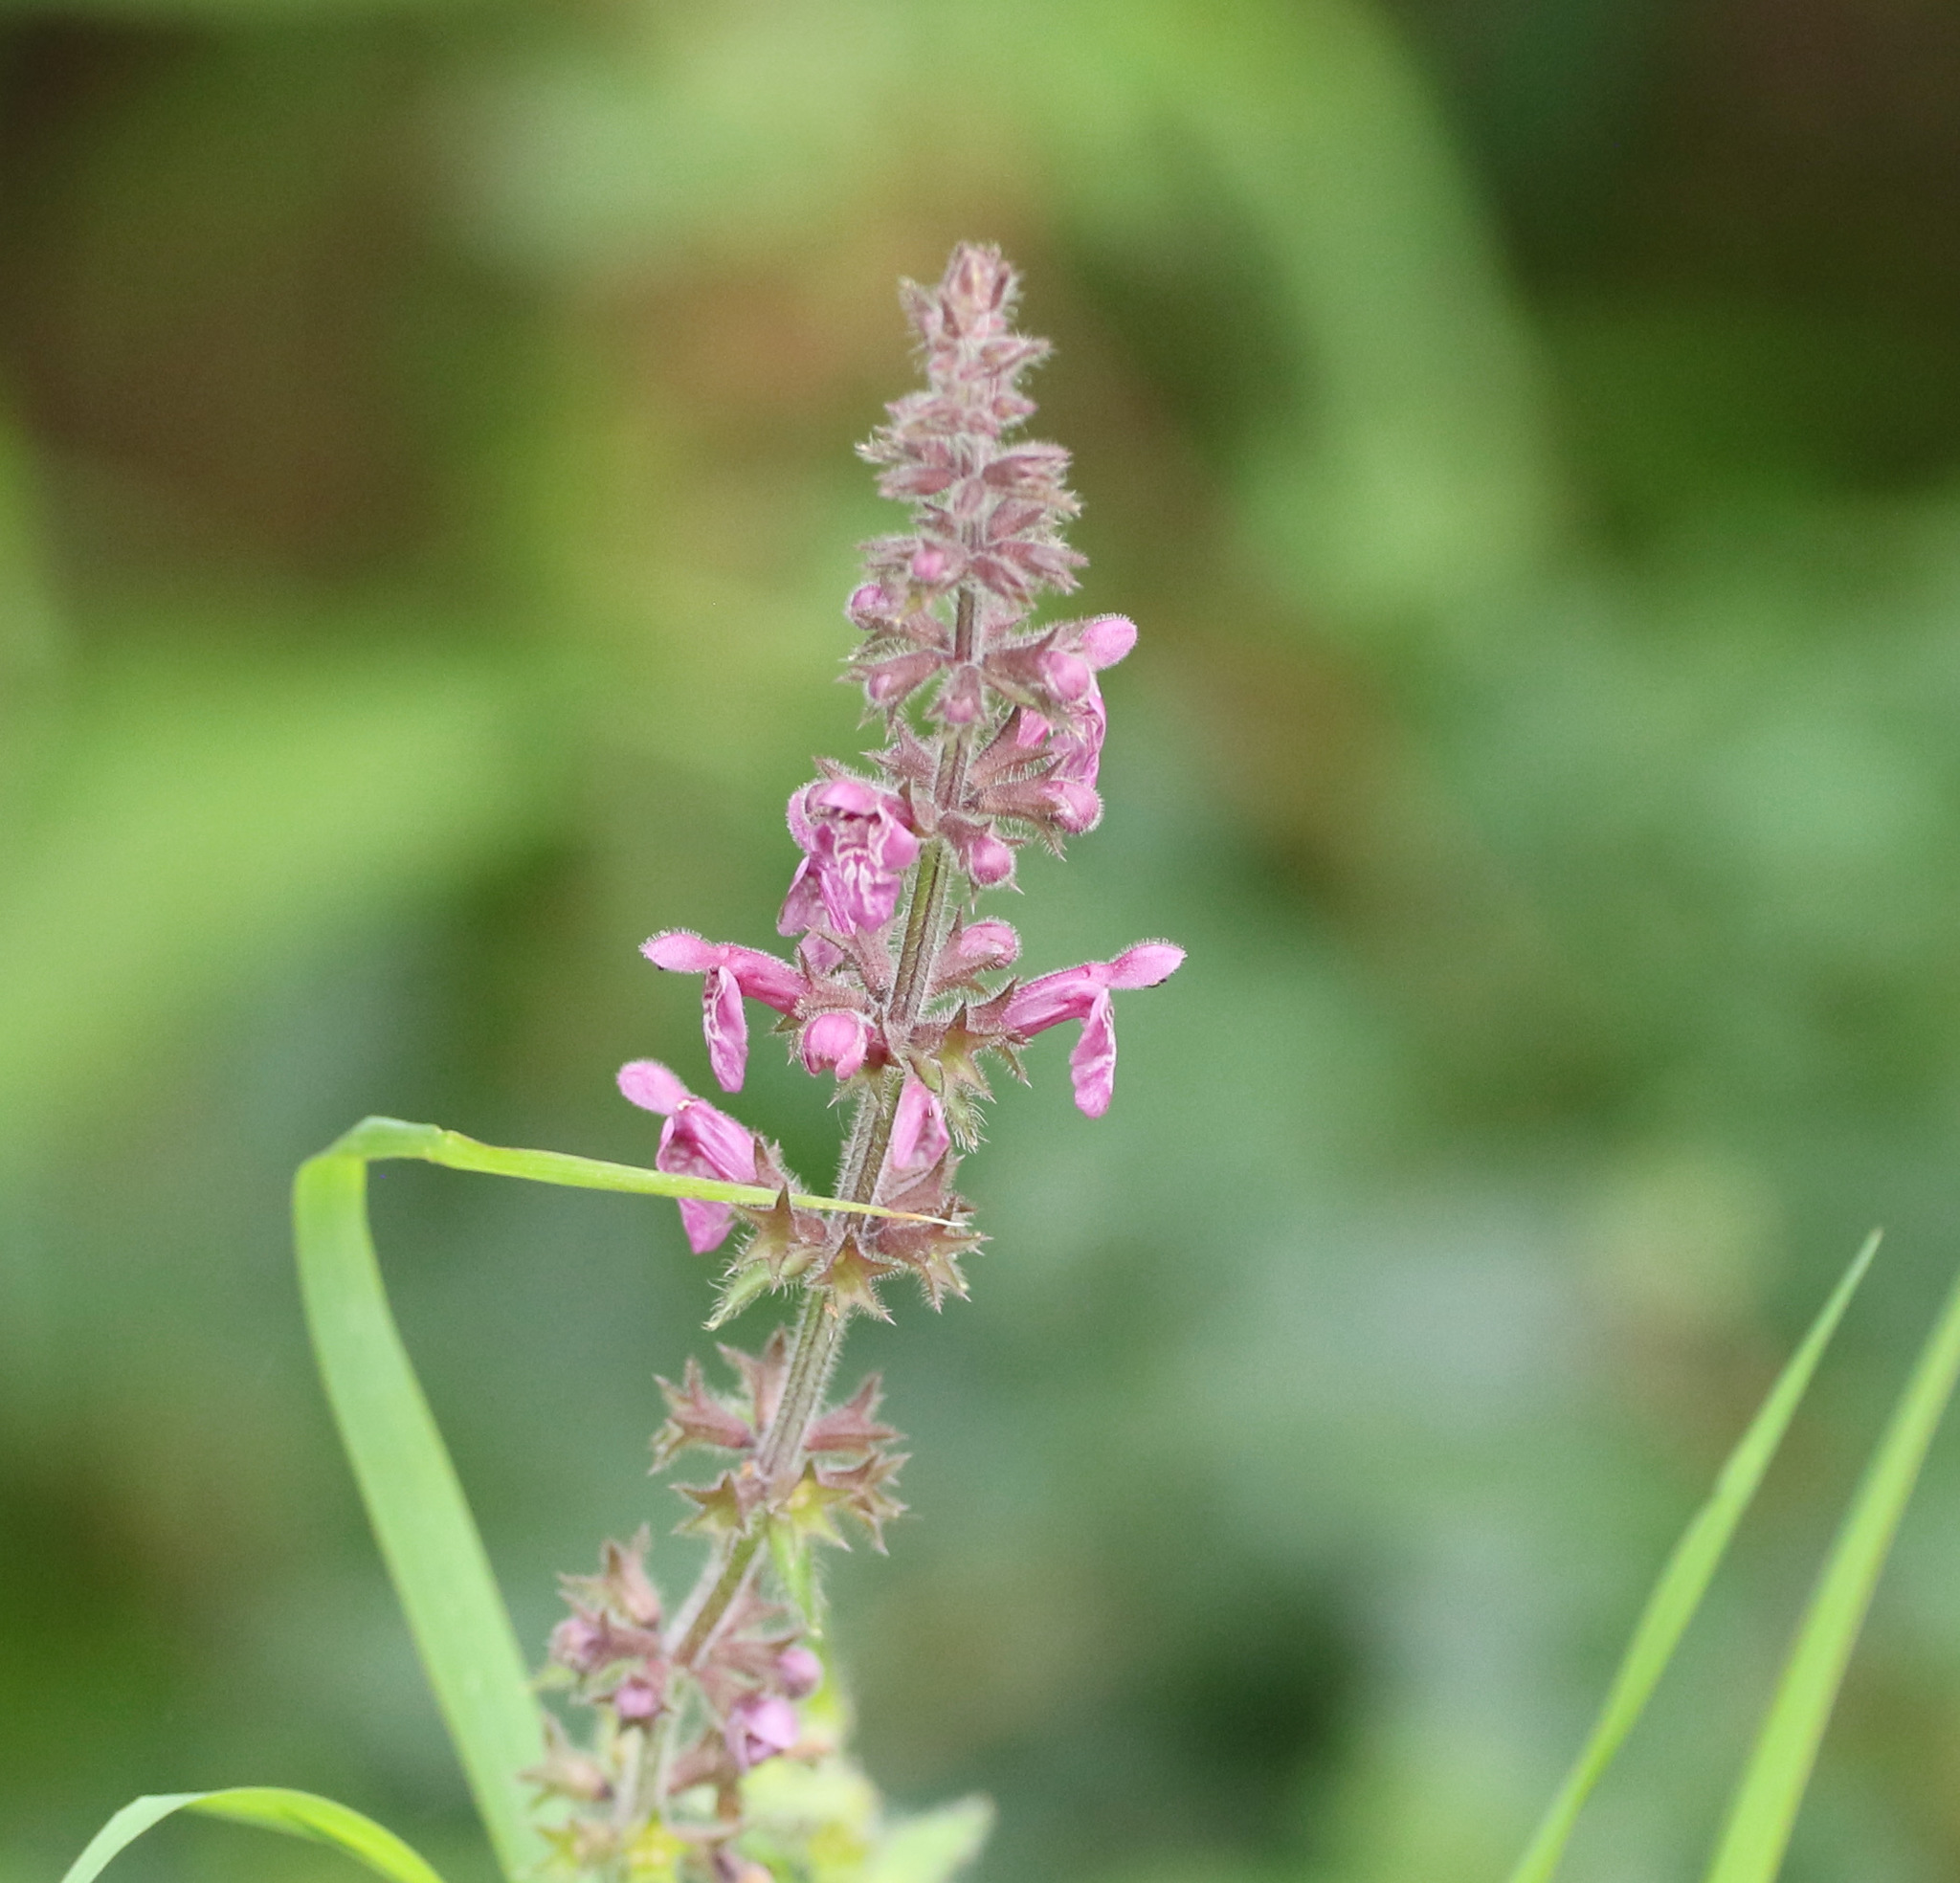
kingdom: Plantae
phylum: Tracheophyta
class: Magnoliopsida
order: Lamiales
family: Lamiaceae
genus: Stachys
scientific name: Stachys sylvatica
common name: Hedge woundwort
